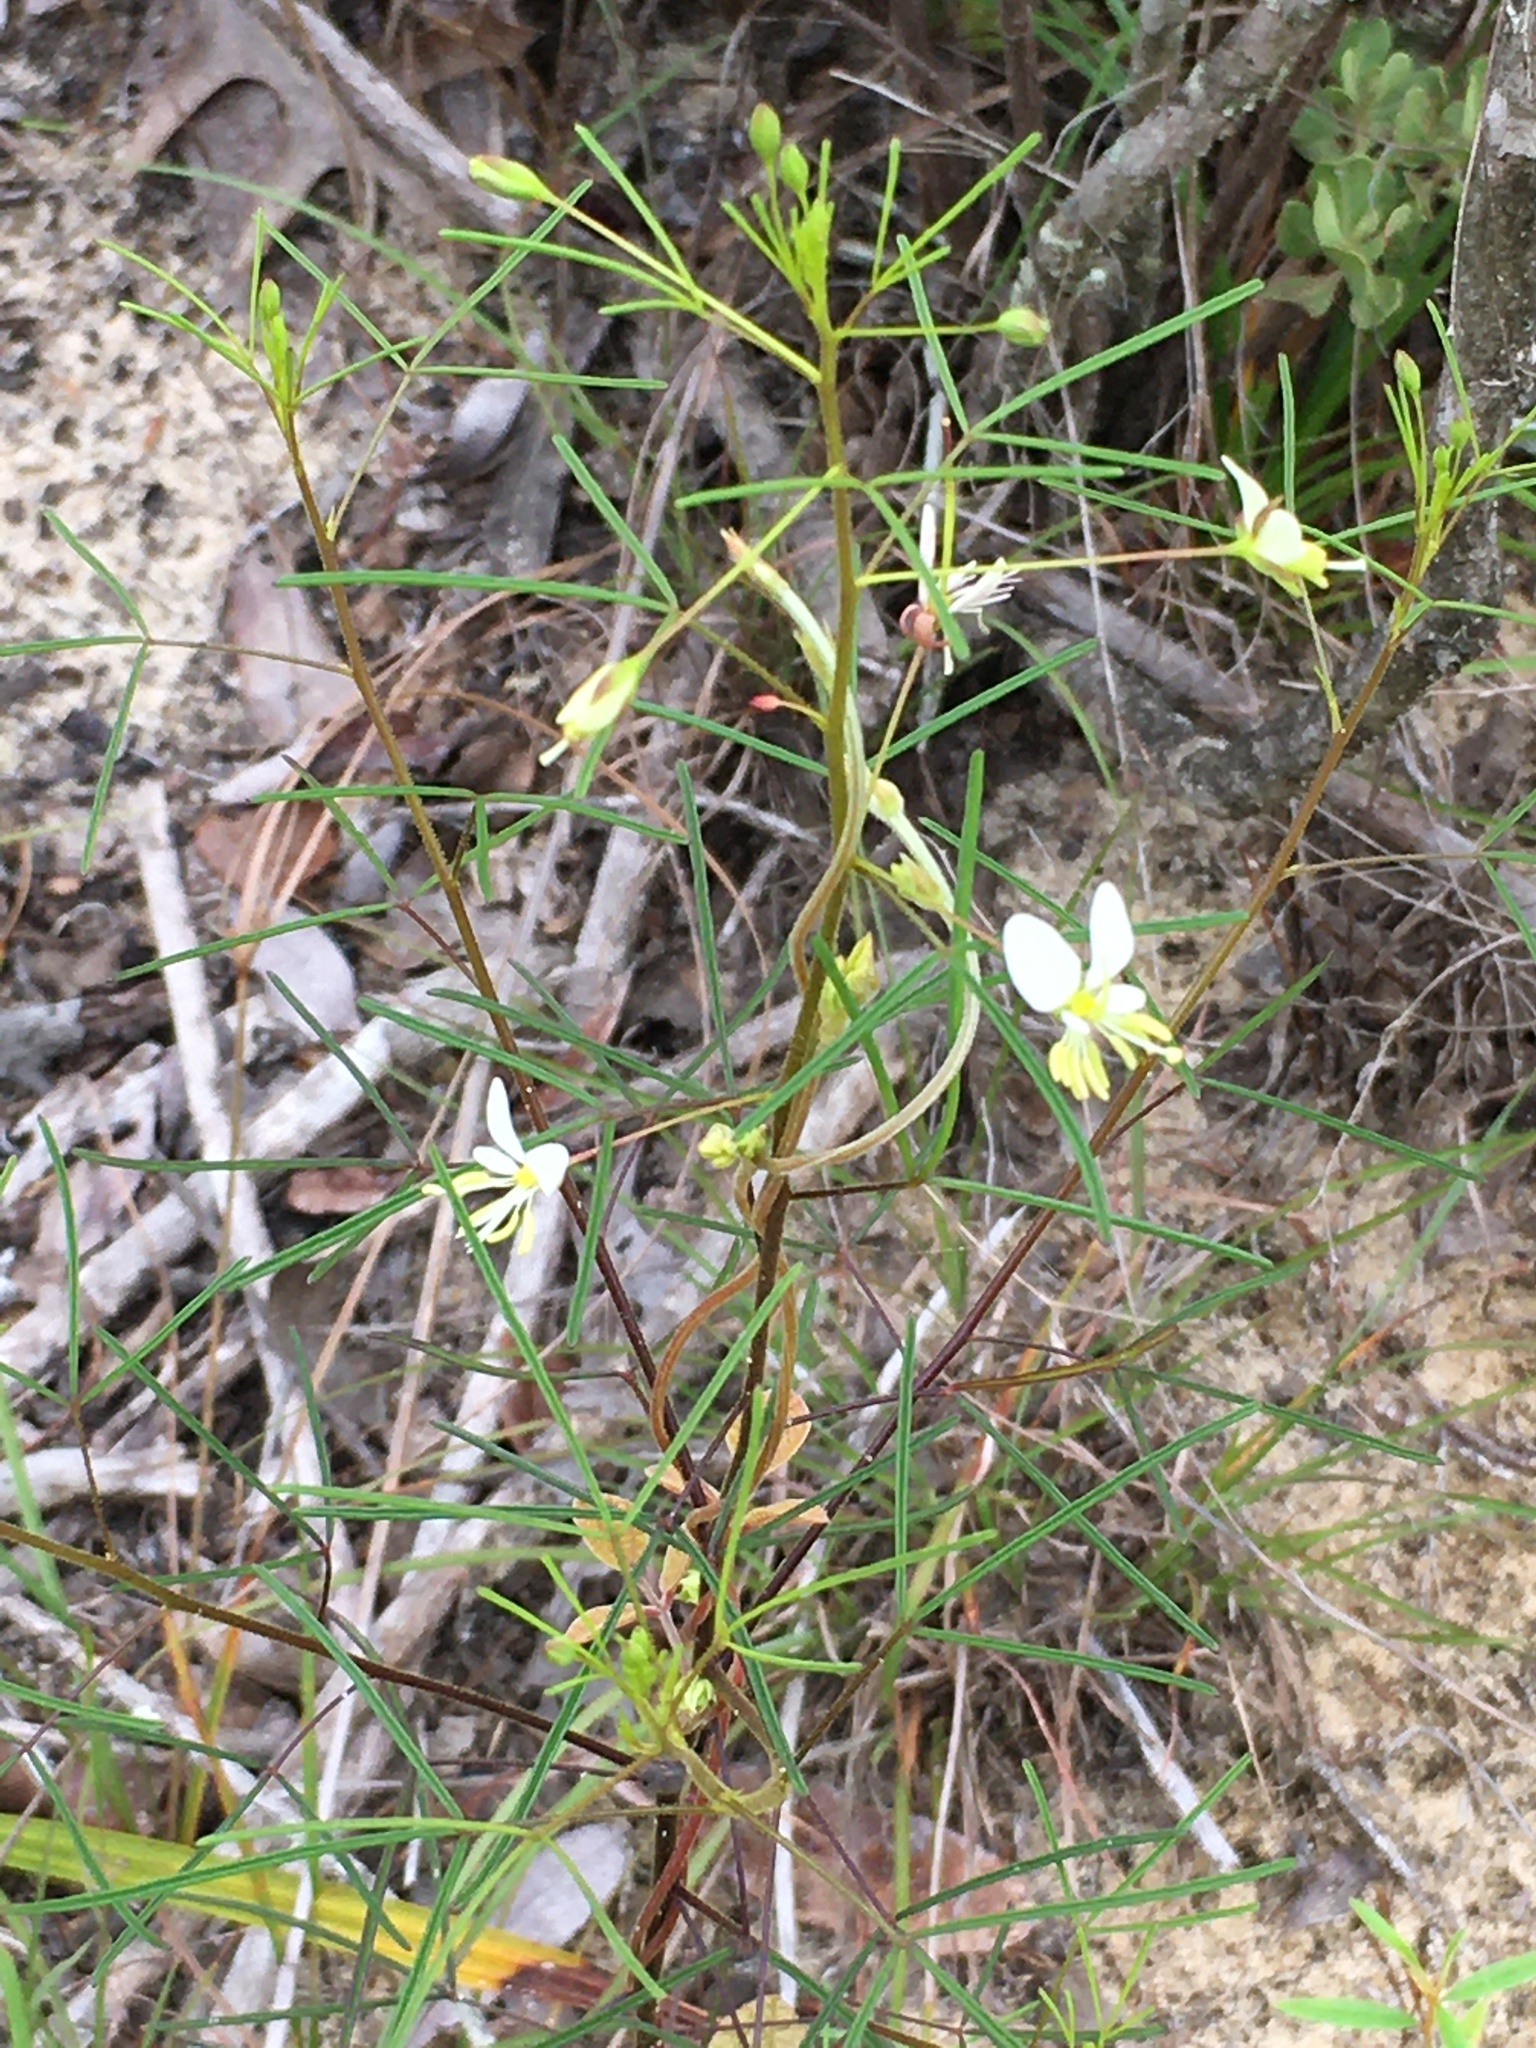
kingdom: Plantae
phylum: Tracheophyta
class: Magnoliopsida
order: Brassicales
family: Cleomaceae
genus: Polanisia
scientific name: Polanisia tenuifolia
